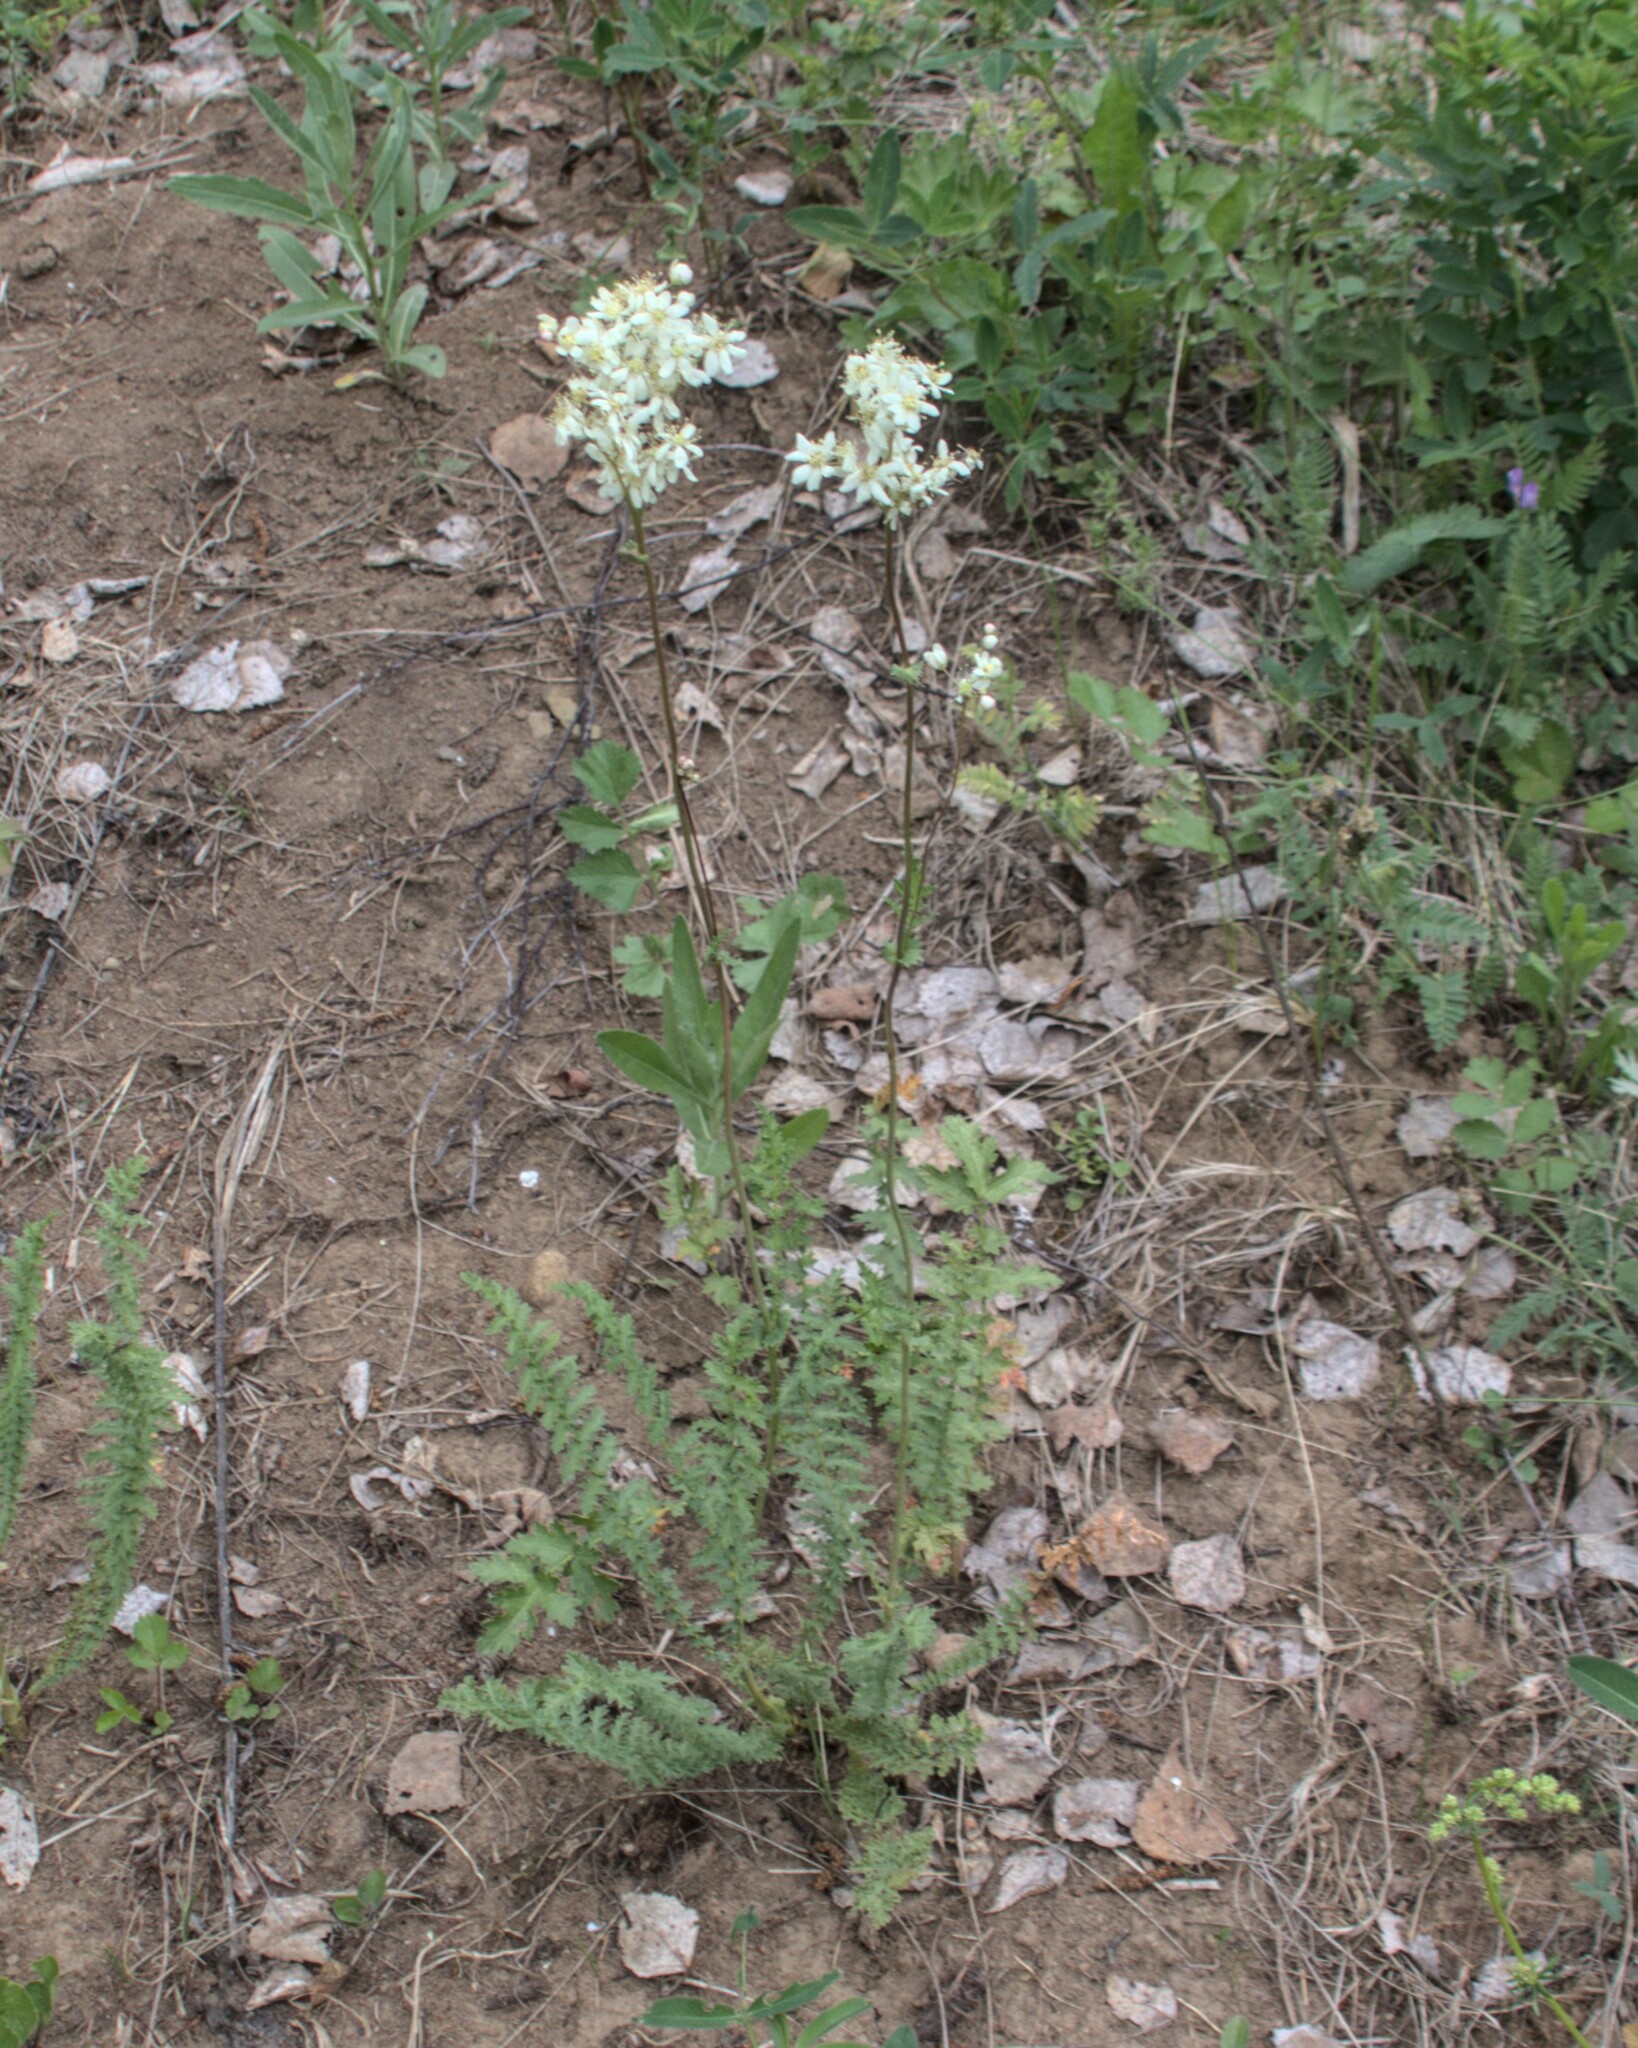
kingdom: Plantae
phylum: Tracheophyta
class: Magnoliopsida
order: Rosales
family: Rosaceae
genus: Filipendula
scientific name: Filipendula vulgaris
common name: Dropwort
